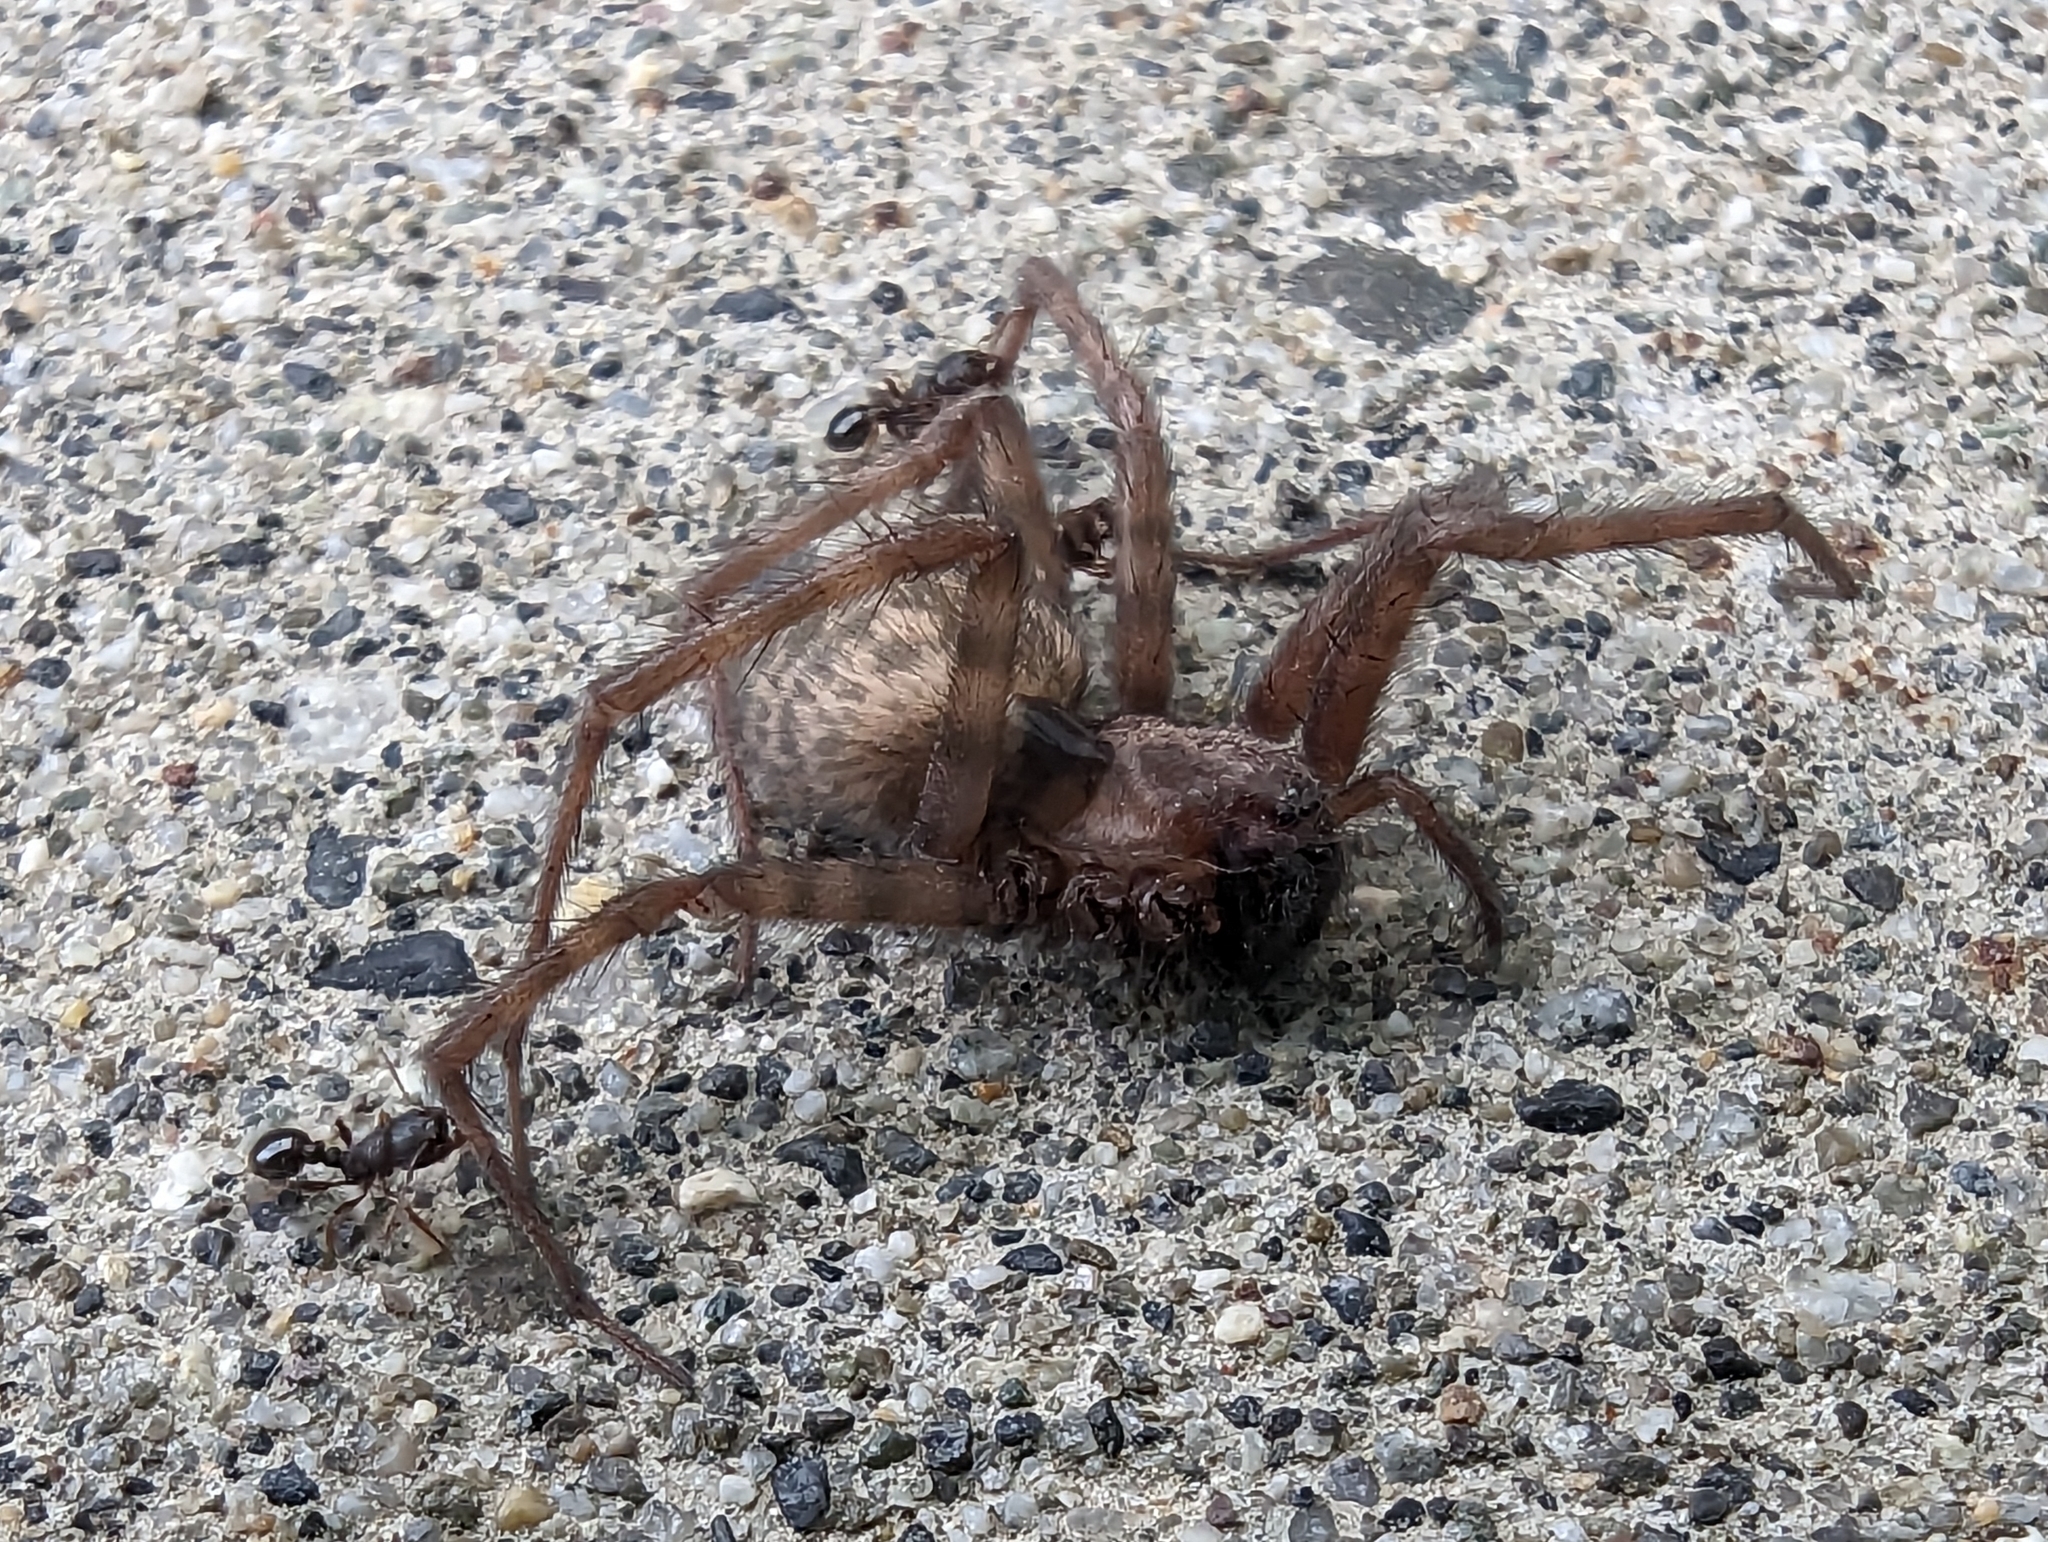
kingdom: Animalia
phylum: Arthropoda
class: Arachnida
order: Araneae
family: Agelenidae
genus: Tegenaria
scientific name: Tegenaria domestica
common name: Barn funnel weaver
